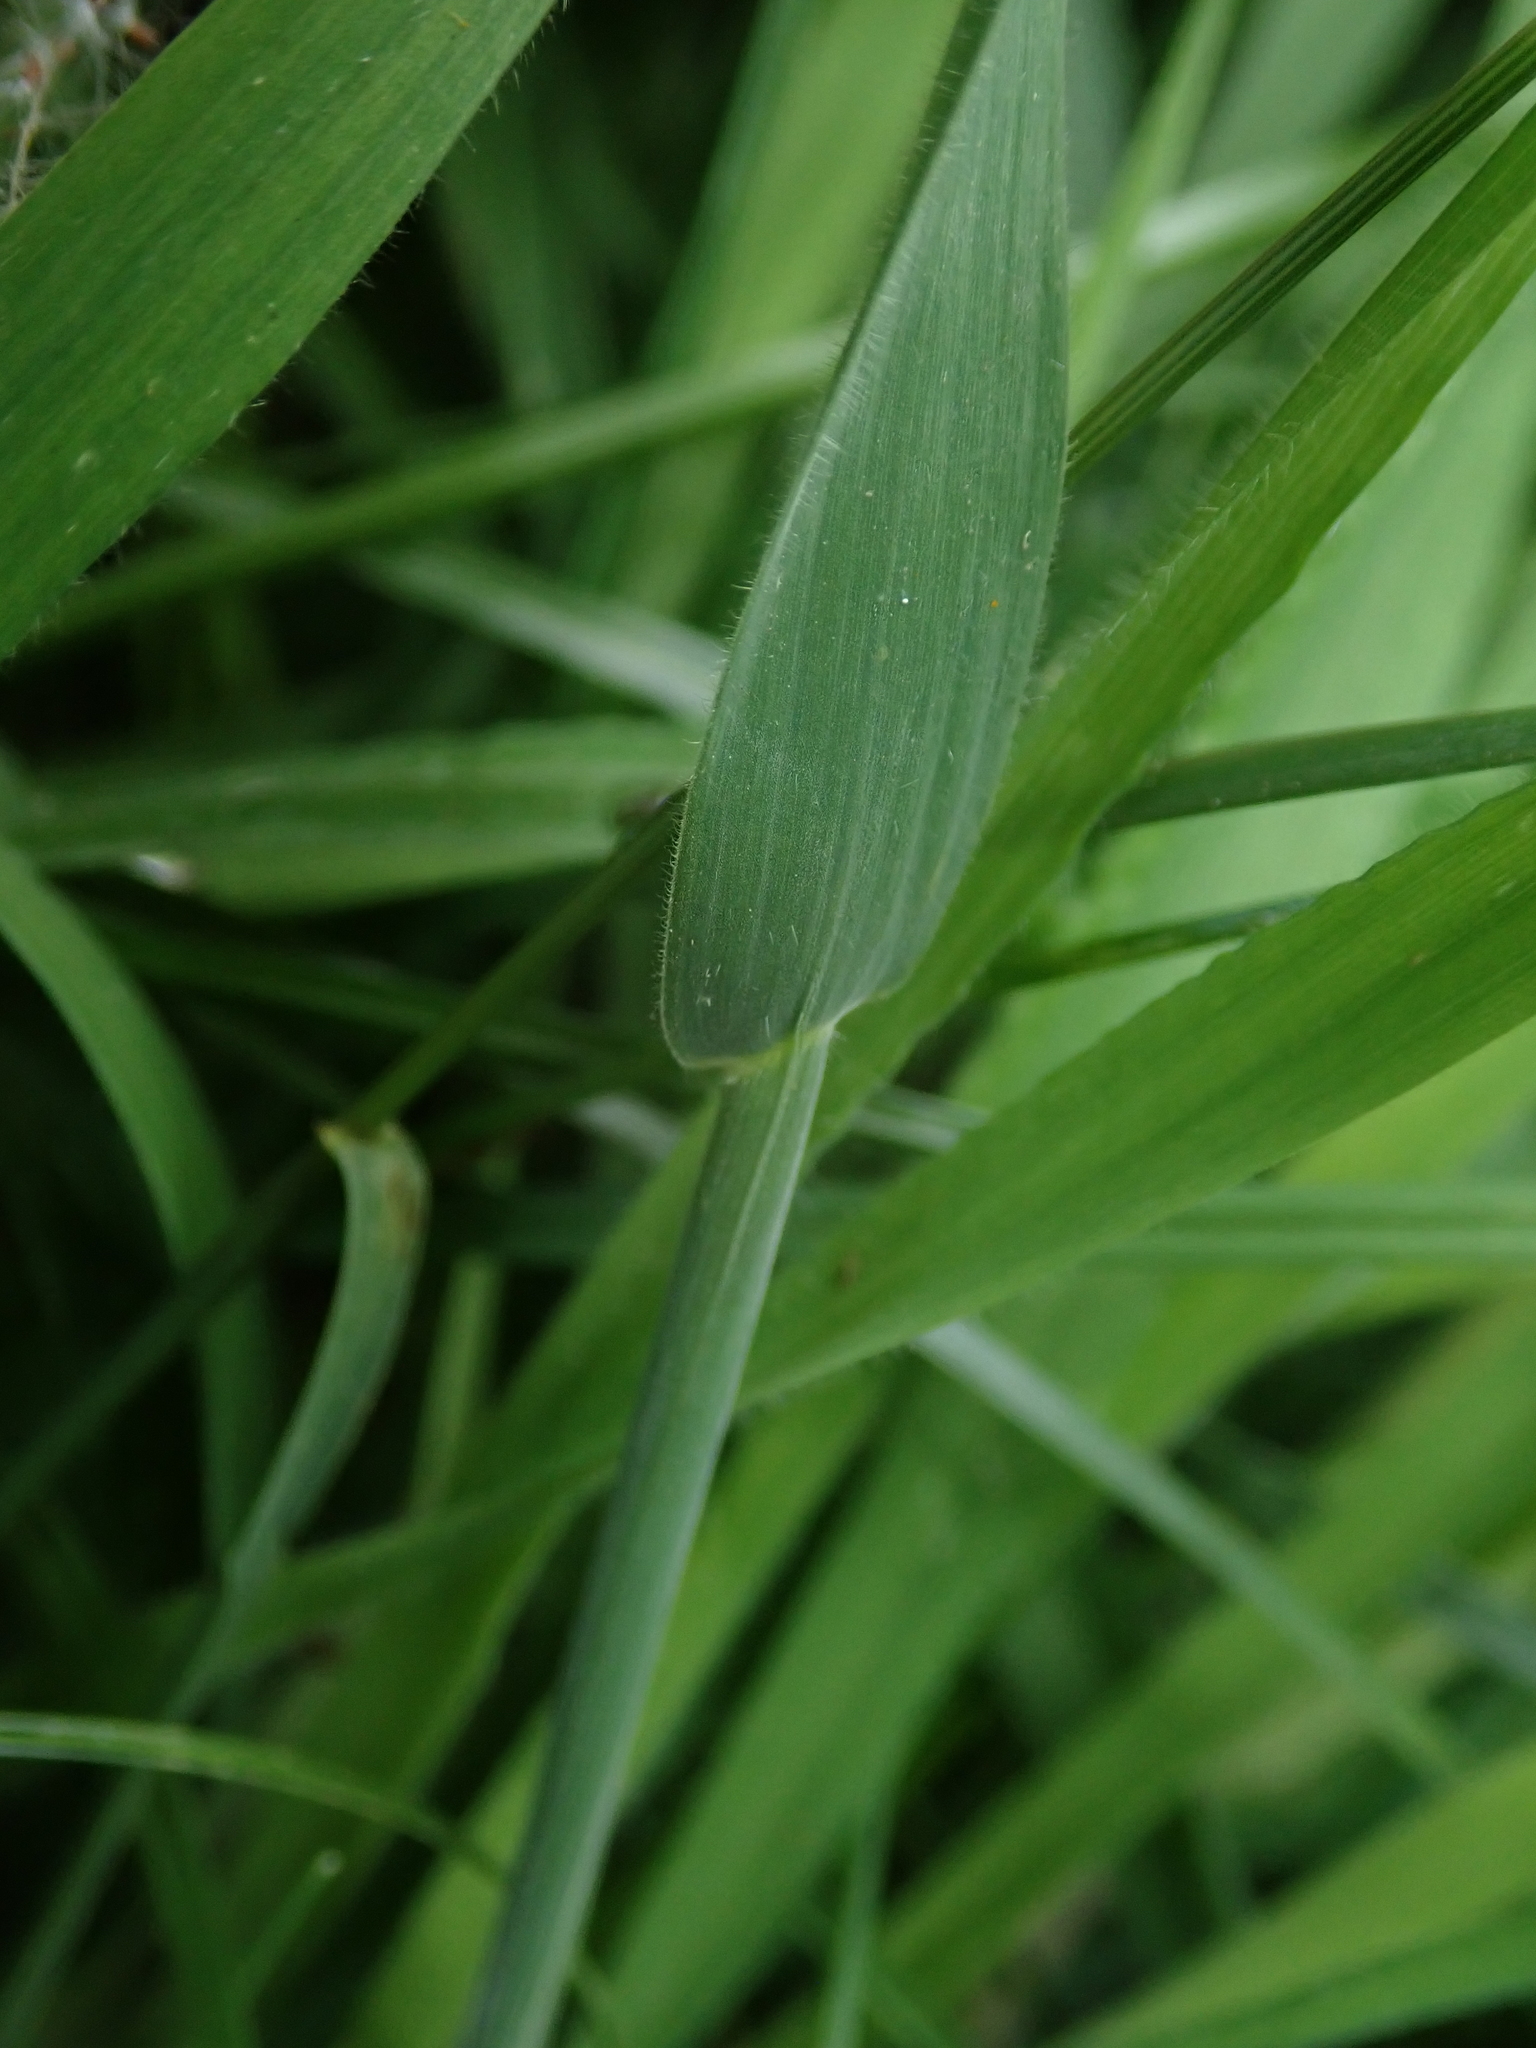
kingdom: Plantae
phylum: Tracheophyta
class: Liliopsida
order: Poales
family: Poaceae
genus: Holcus
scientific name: Holcus lanatus
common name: Yorkshire-fog
